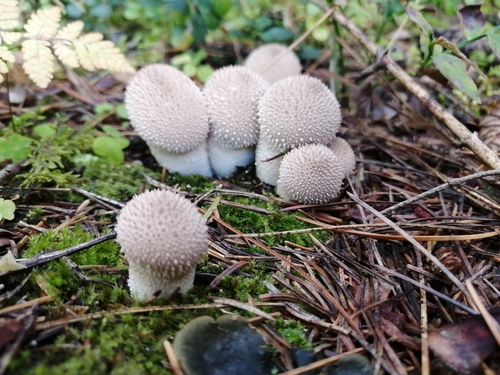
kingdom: Fungi
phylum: Basidiomycota
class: Agaricomycetes
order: Agaricales
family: Lycoperdaceae
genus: Lycoperdon
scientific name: Lycoperdon perlatum
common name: Common puffball
